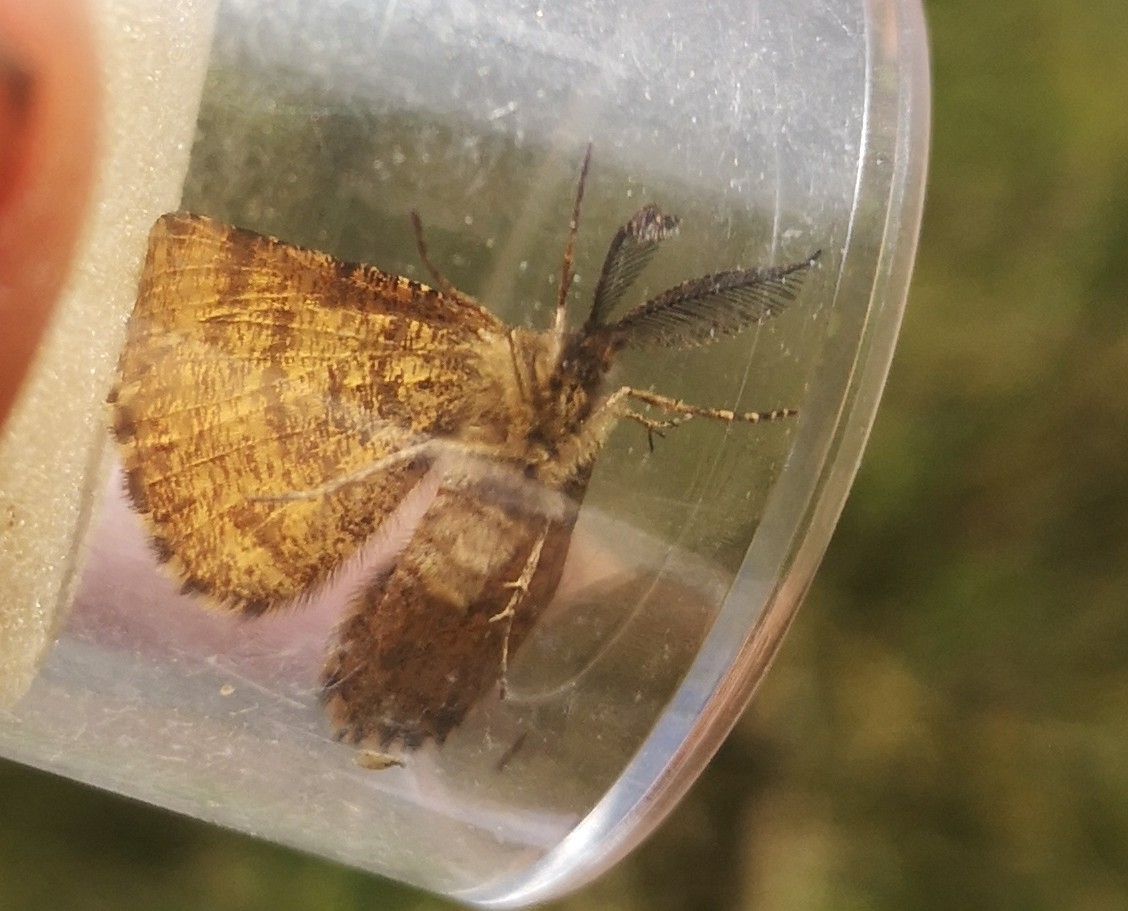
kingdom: Animalia
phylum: Arthropoda
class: Insecta
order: Lepidoptera
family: Geometridae
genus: Ematurga
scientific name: Ematurga atomaria
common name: Common heath
